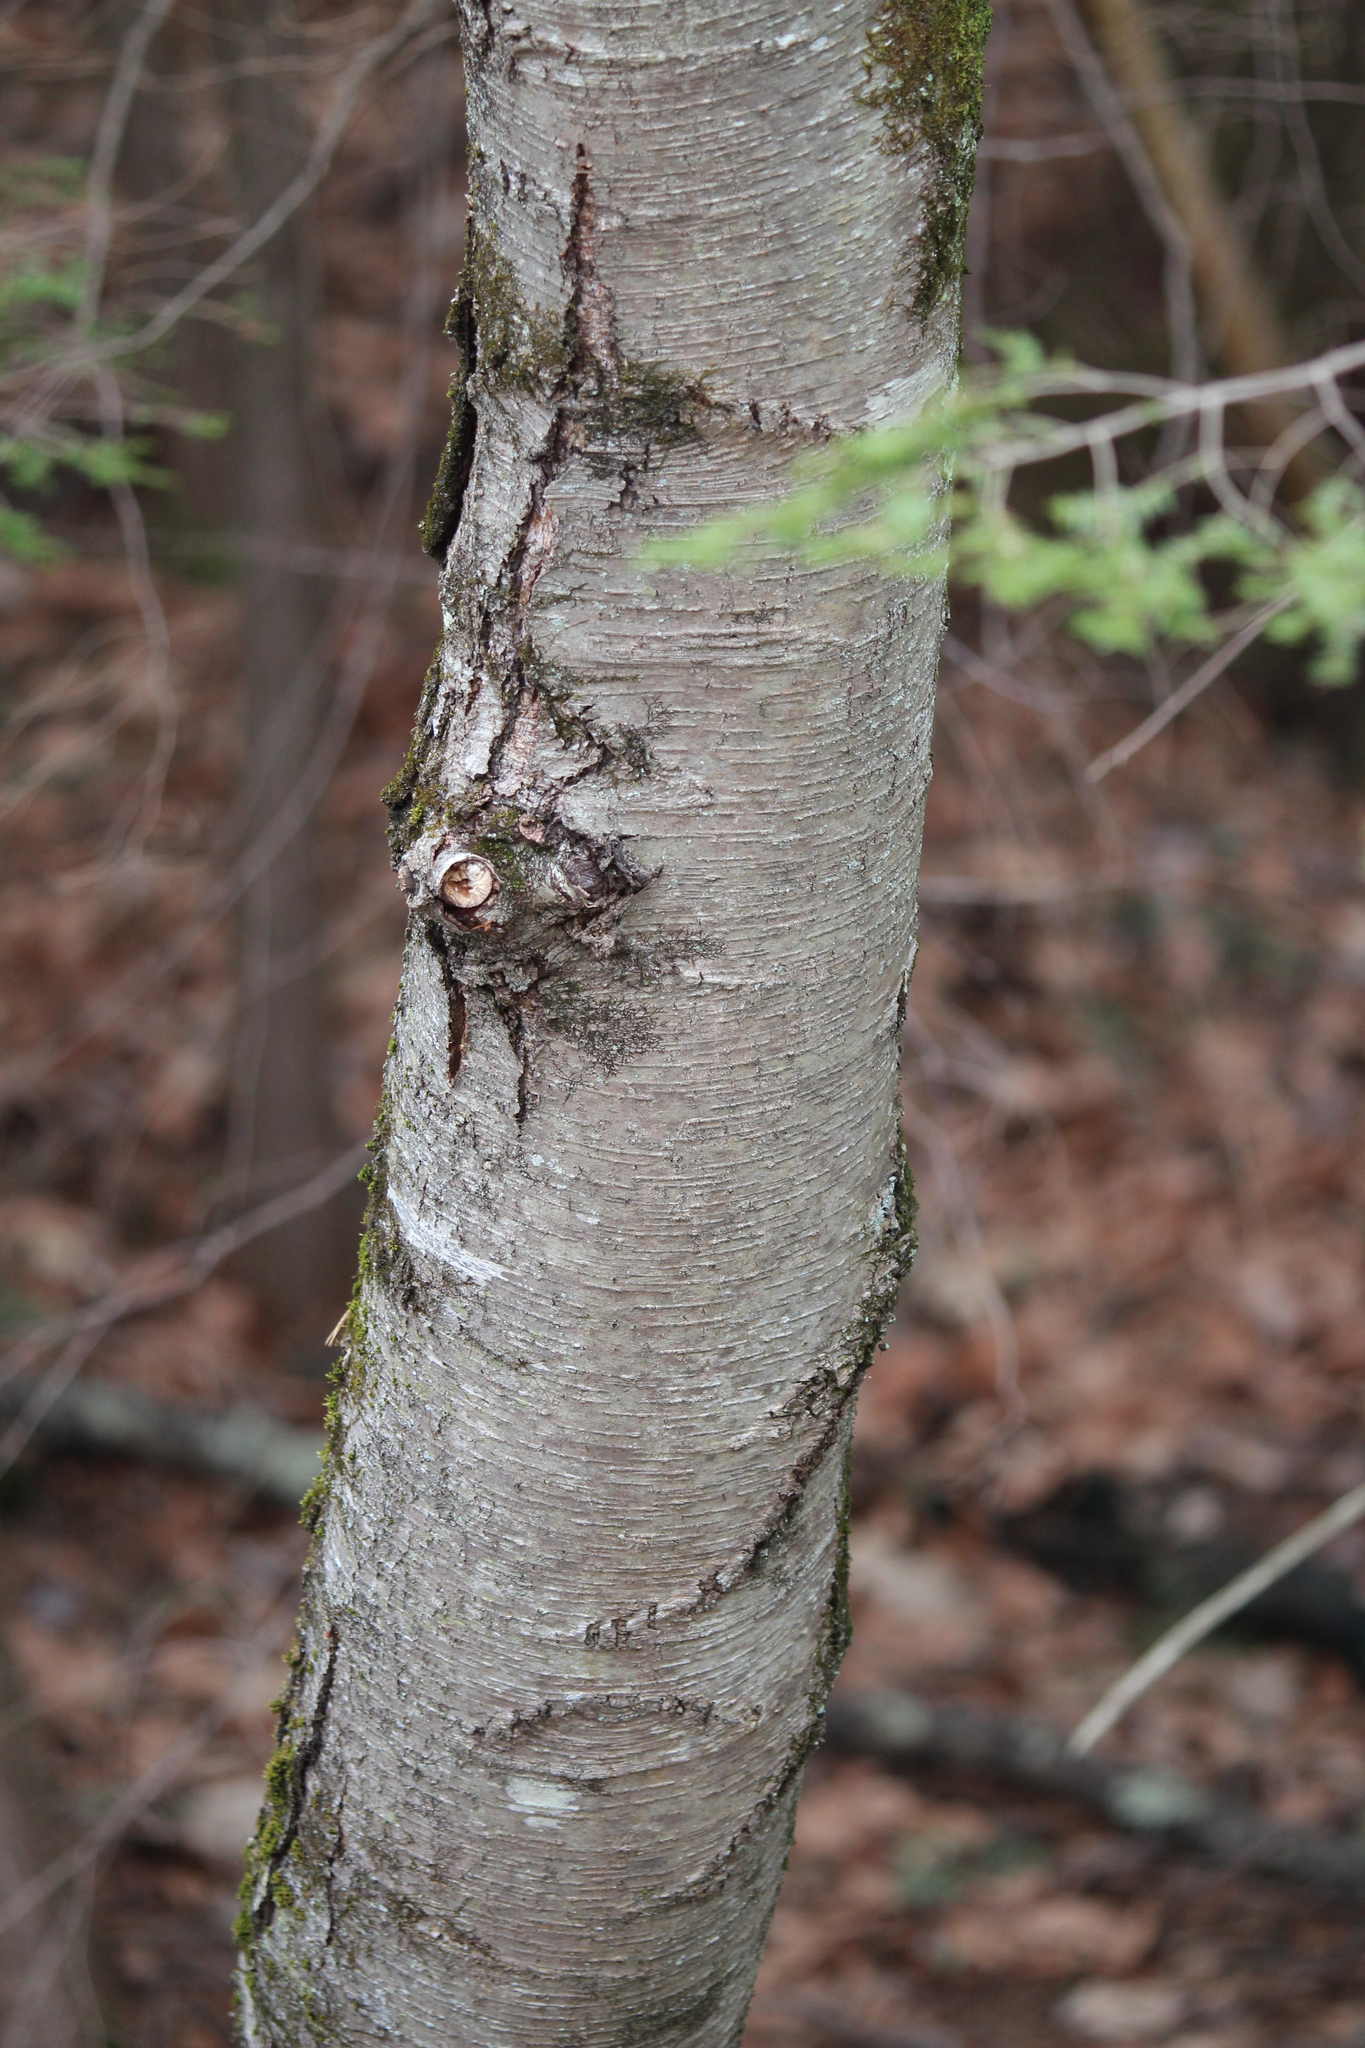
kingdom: Plantae
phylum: Tracheophyta
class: Magnoliopsida
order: Fagales
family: Betulaceae
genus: Betula
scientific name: Betula lenta
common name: Black birch
